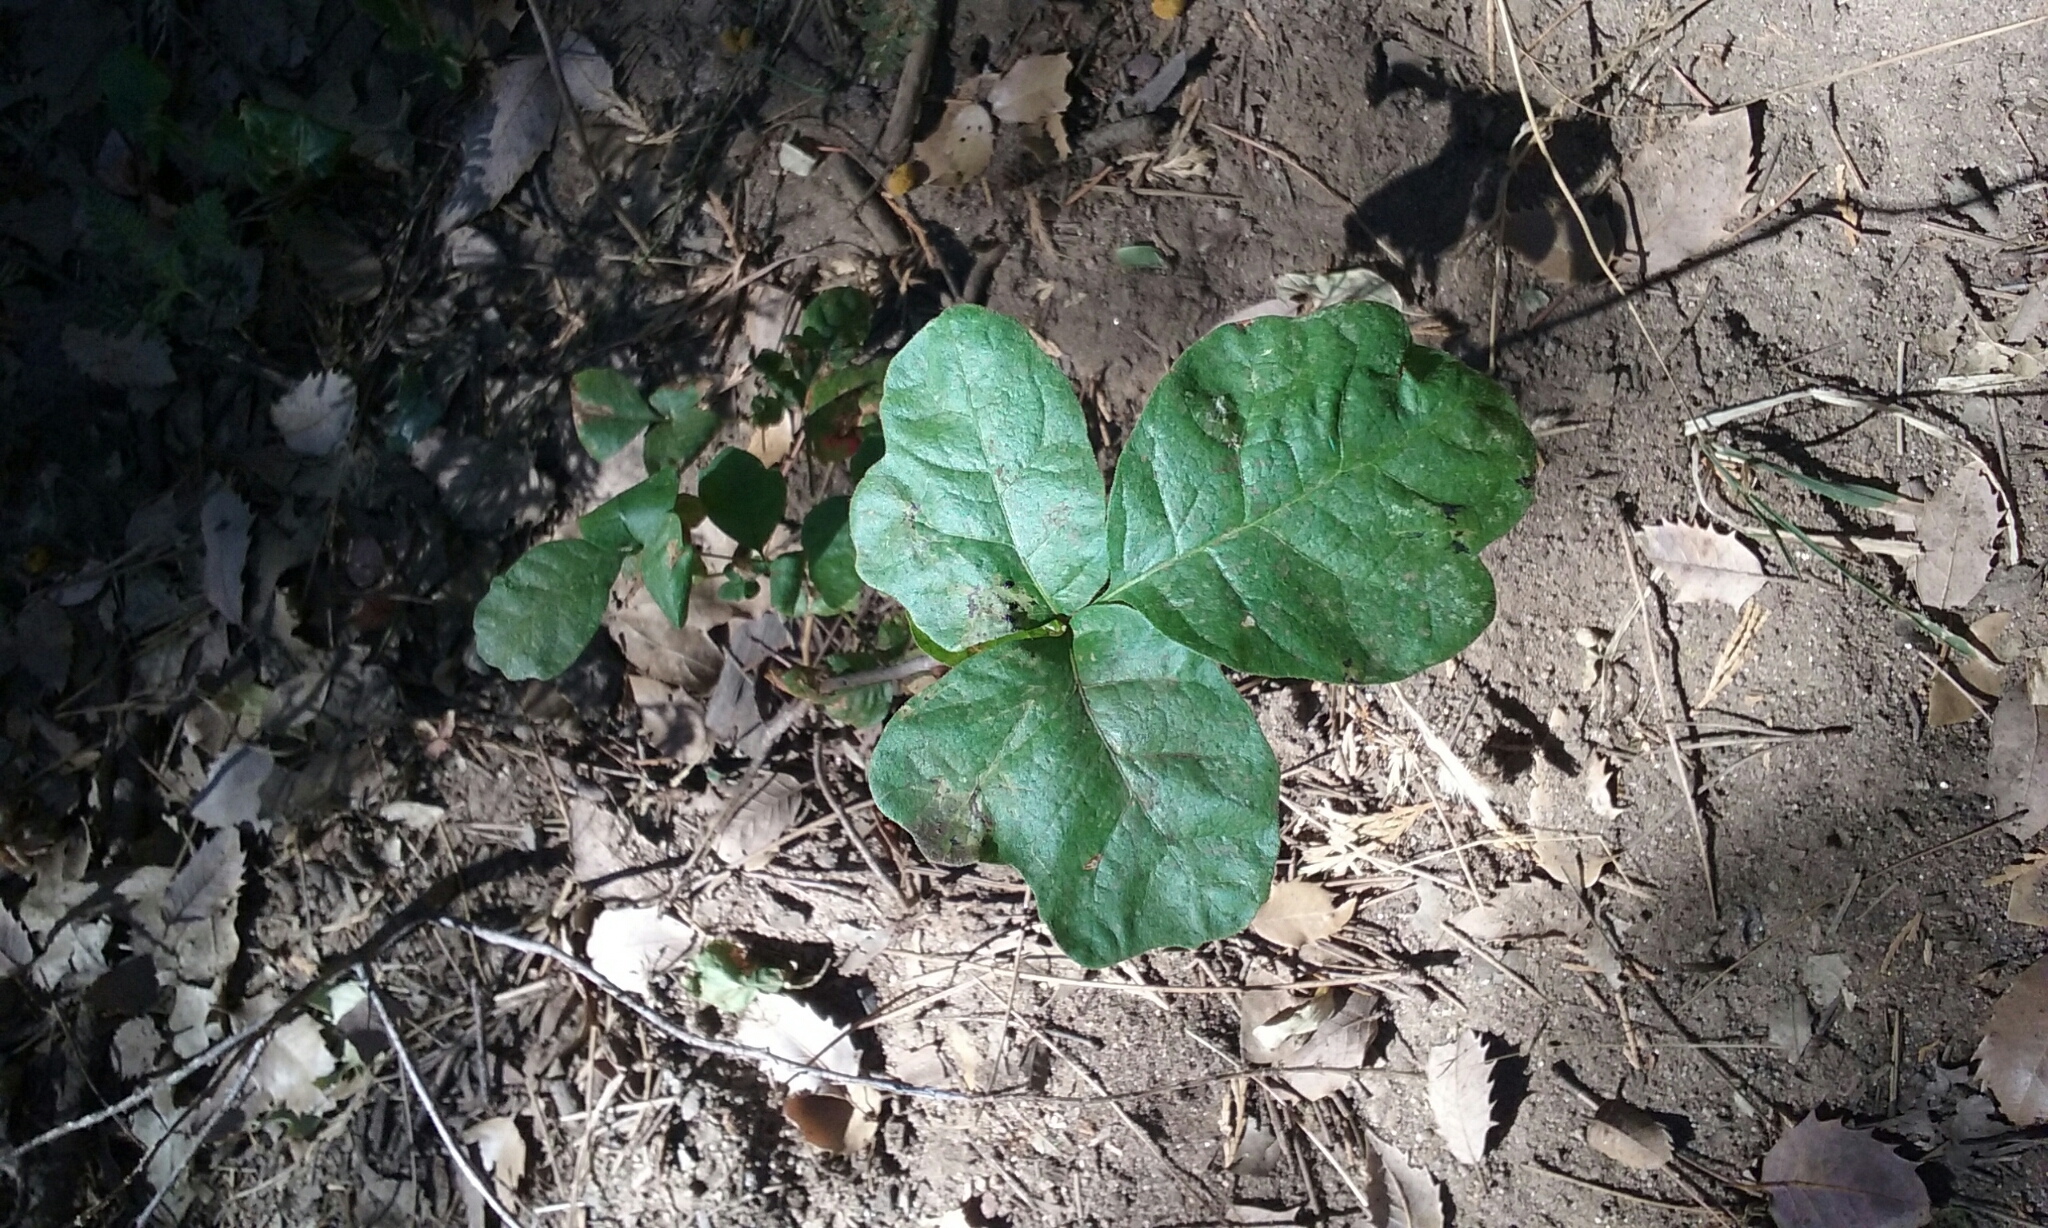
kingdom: Plantae
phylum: Tracheophyta
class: Magnoliopsida
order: Sapindales
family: Anacardiaceae
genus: Toxicodendron
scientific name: Toxicodendron diversilobum
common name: Pacific poison-oak
